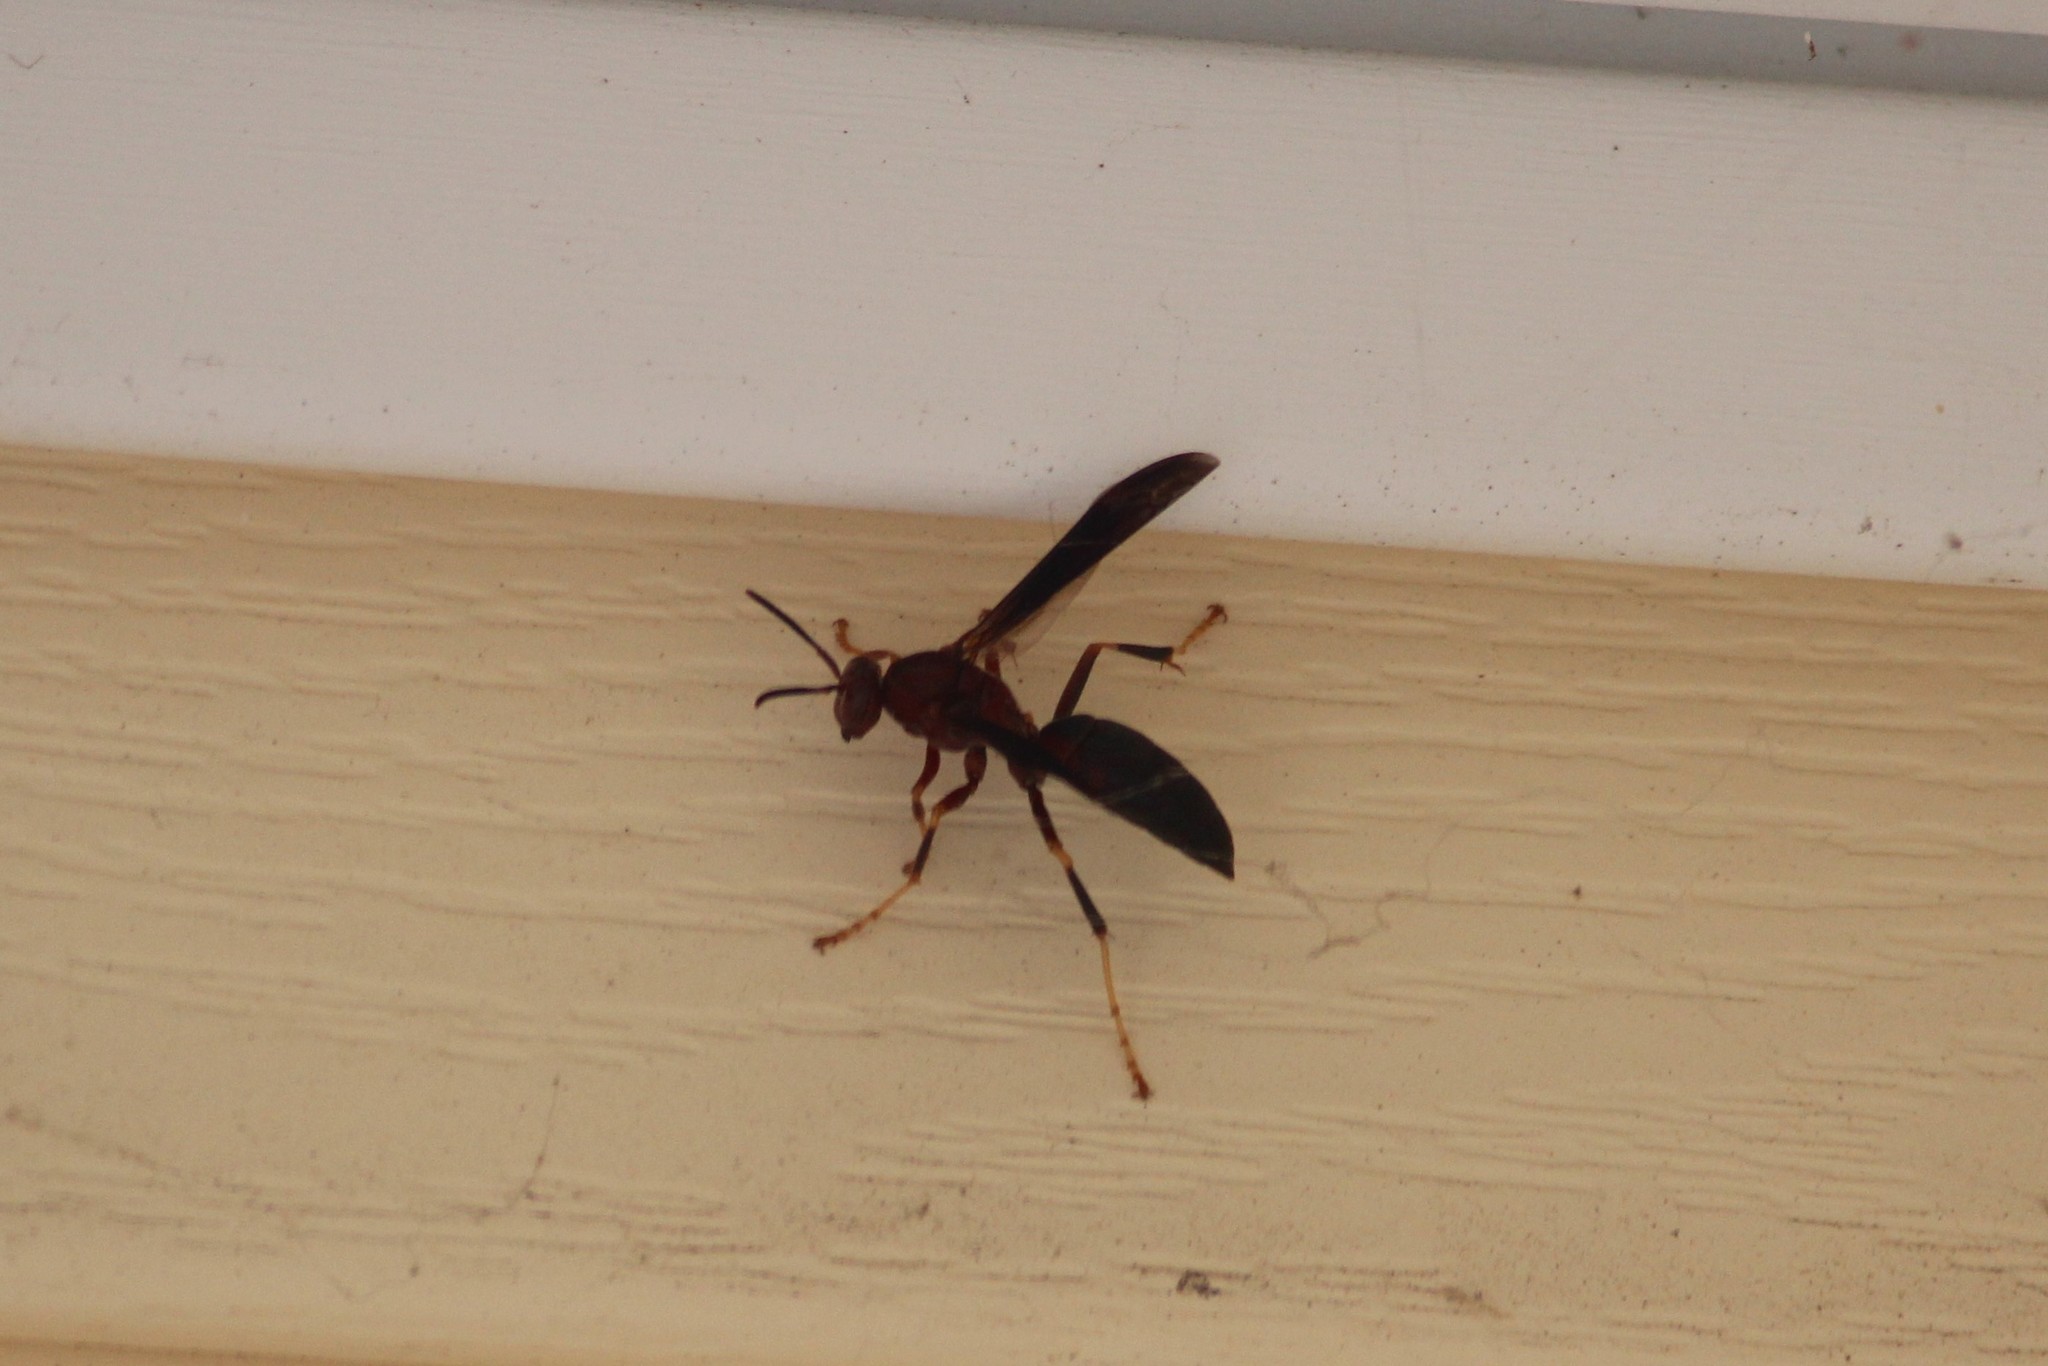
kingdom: Animalia
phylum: Arthropoda
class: Insecta
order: Hymenoptera
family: Eumenidae
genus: Polistes
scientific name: Polistes metricus
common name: Metric paper wasp
